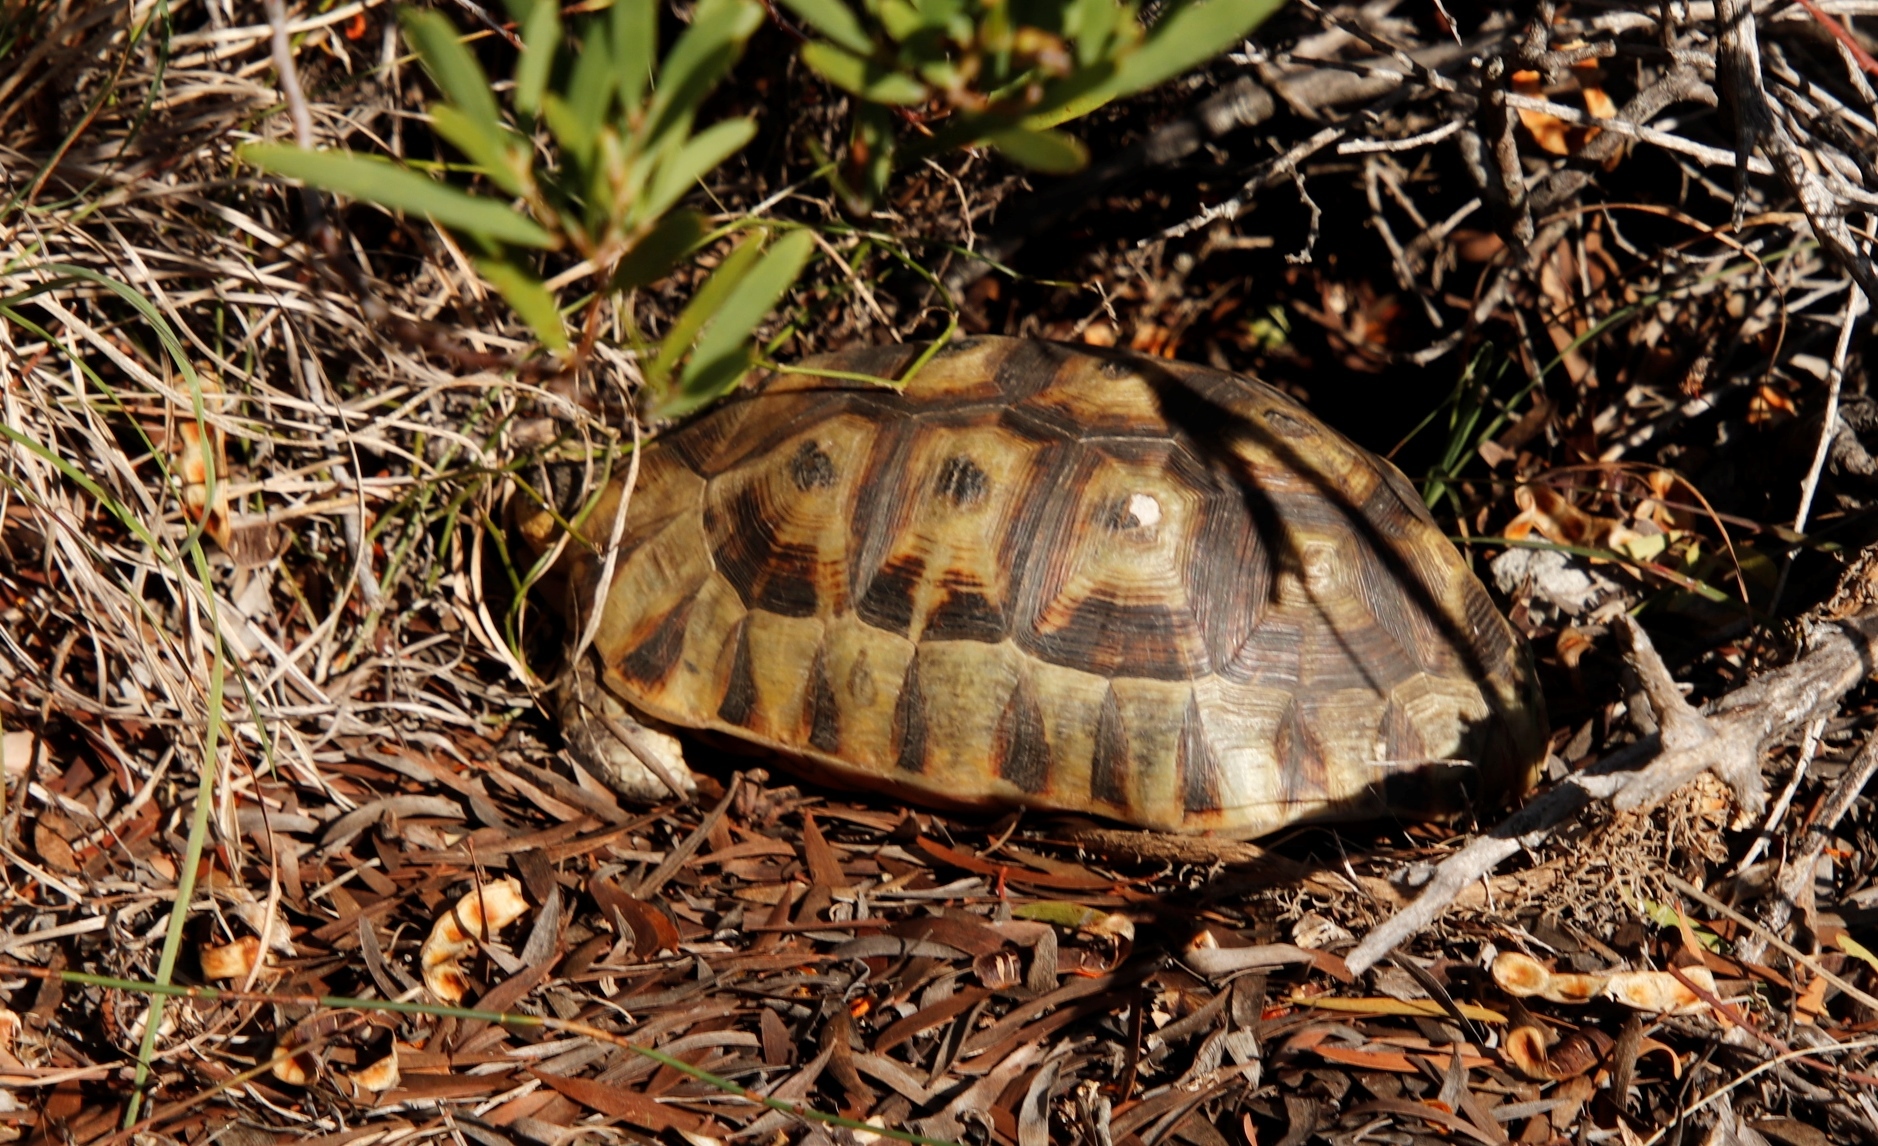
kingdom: Animalia
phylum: Chordata
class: Testudines
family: Testudinidae
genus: Chersina
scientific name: Chersina angulata
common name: South african bowsprit tortoise
